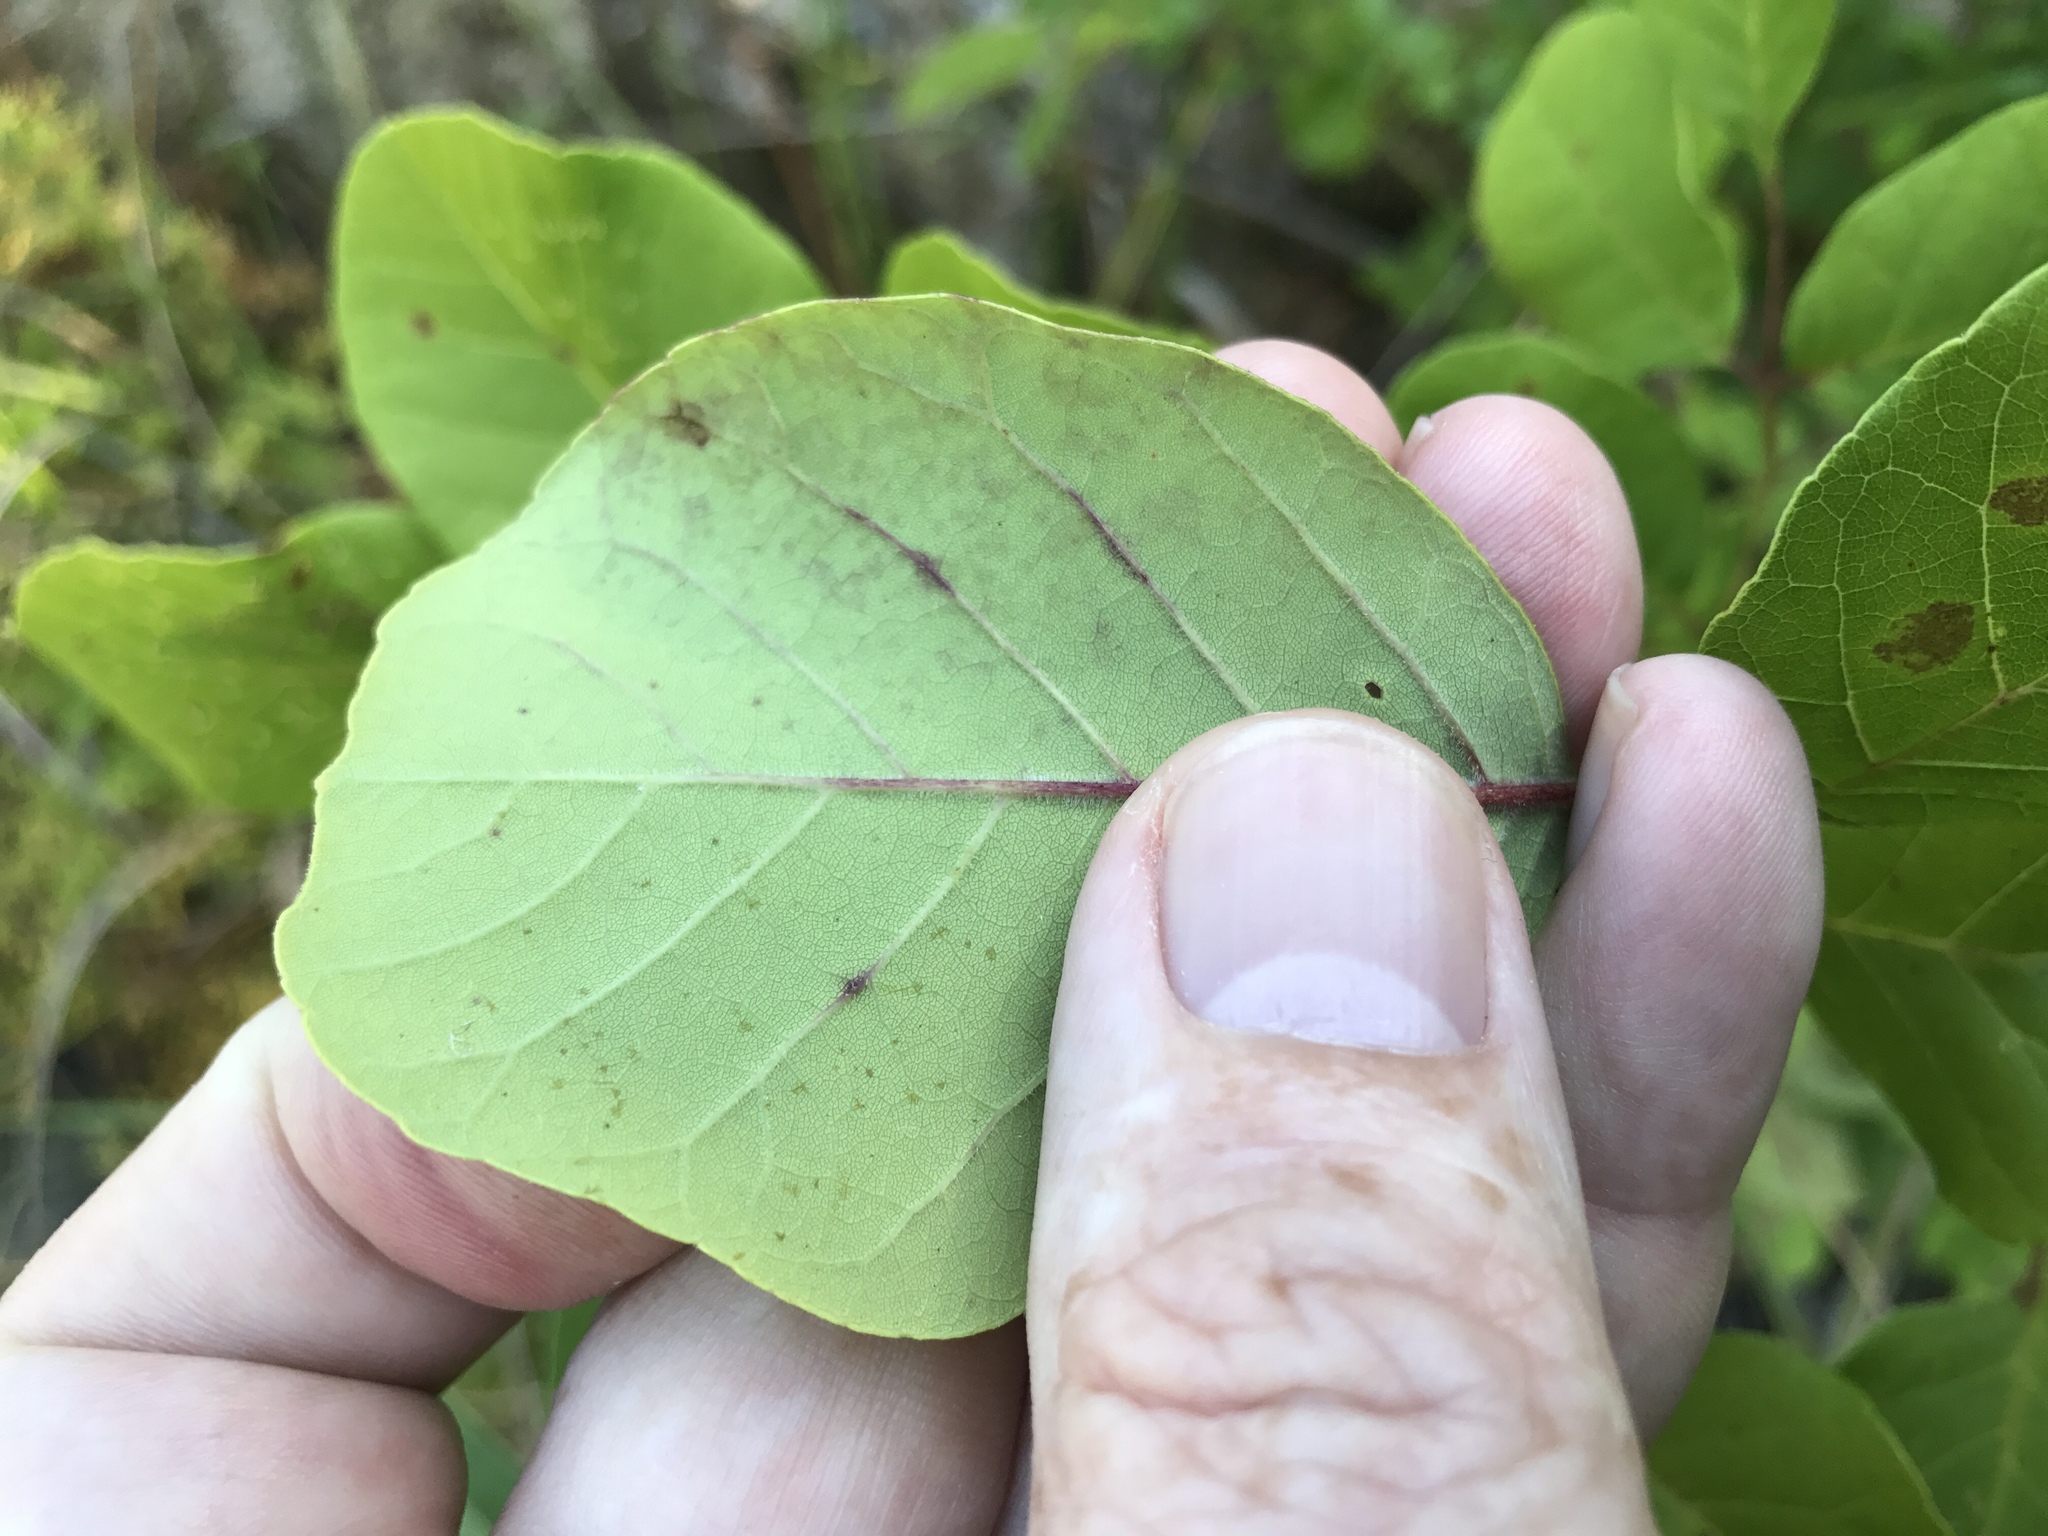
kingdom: Plantae
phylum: Tracheophyta
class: Magnoliopsida
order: Lamiales
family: Oleaceae
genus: Fraxinus
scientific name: Fraxinus albicans
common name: Texas ash
